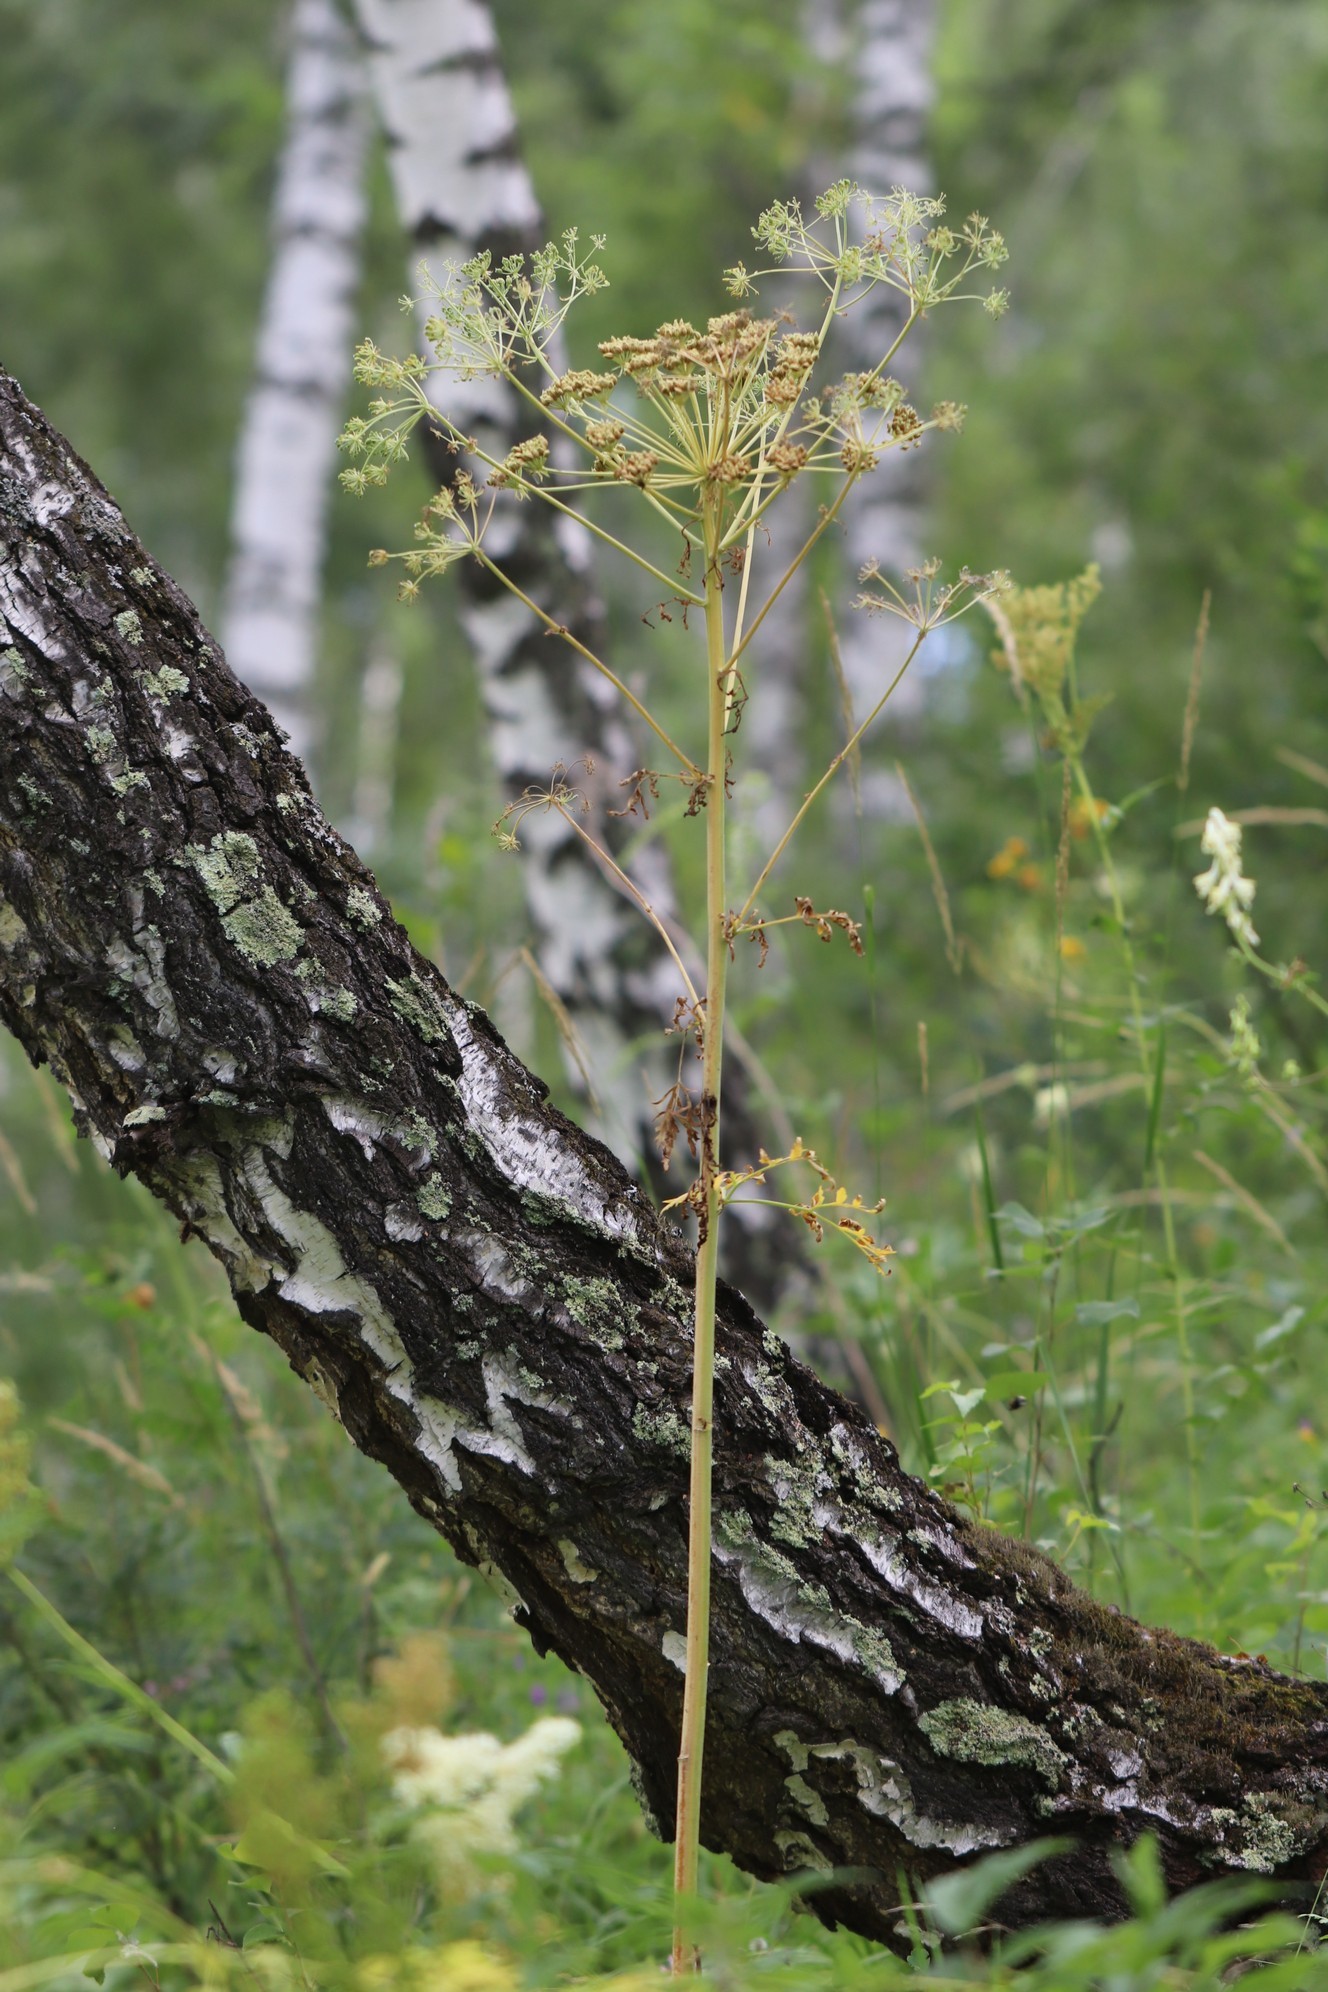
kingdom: Plantae
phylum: Tracheophyta
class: Magnoliopsida
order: Apiales
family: Apiaceae
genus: Pleurospermum
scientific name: Pleurospermum uralense
